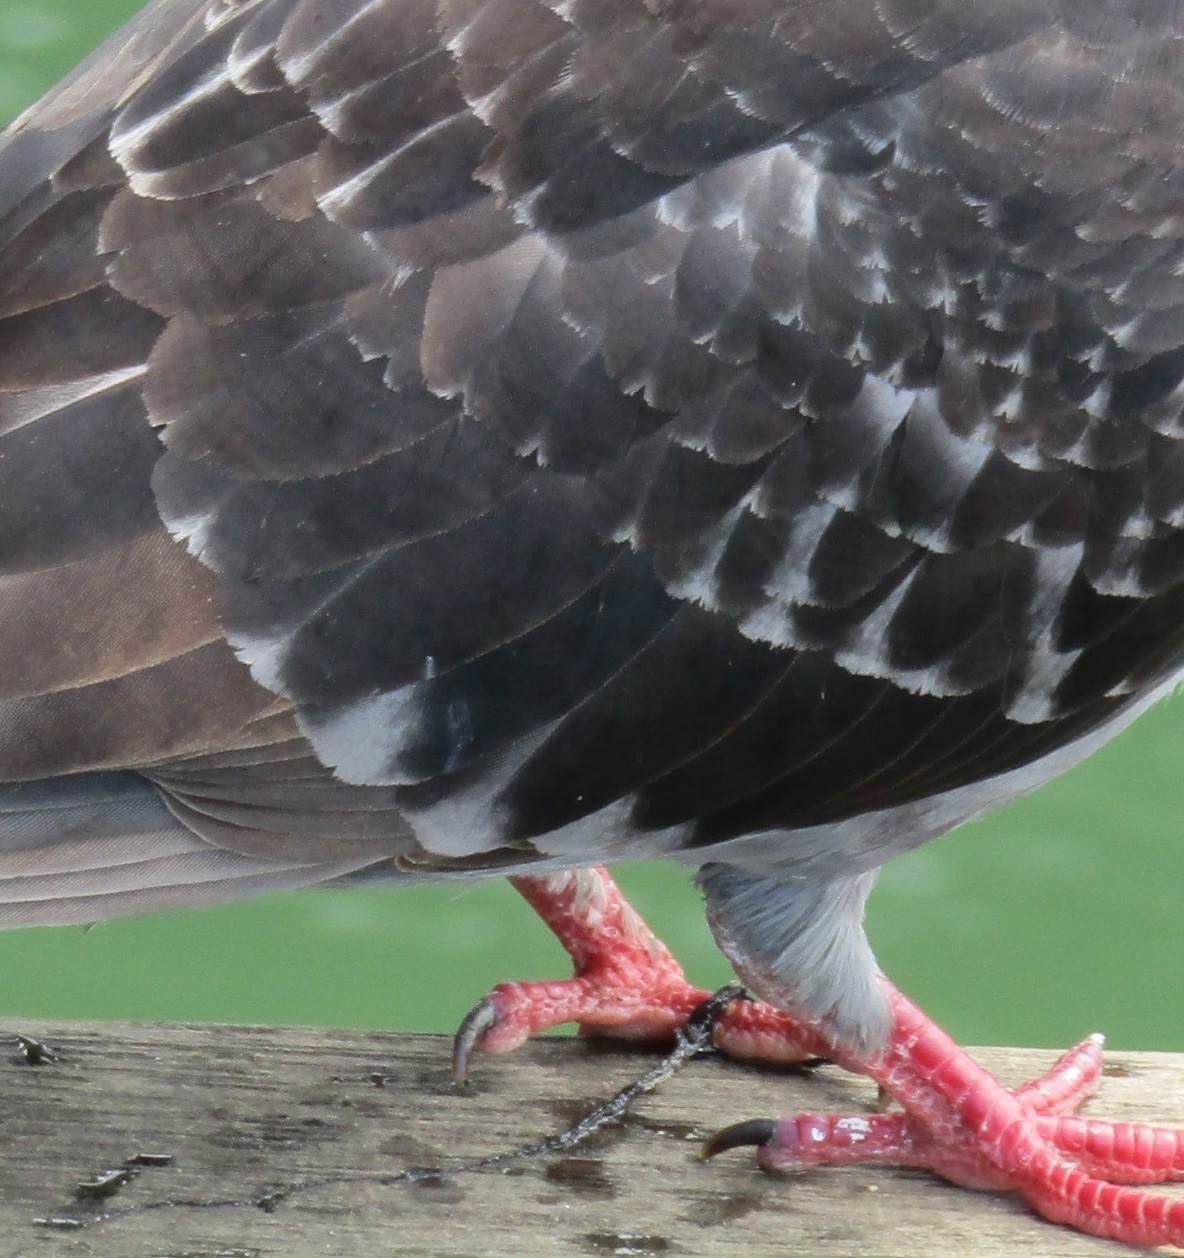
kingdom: Animalia
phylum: Chordata
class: Aves
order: Columbiformes
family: Columbidae
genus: Columba
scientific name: Columba livia
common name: Rock pigeon
